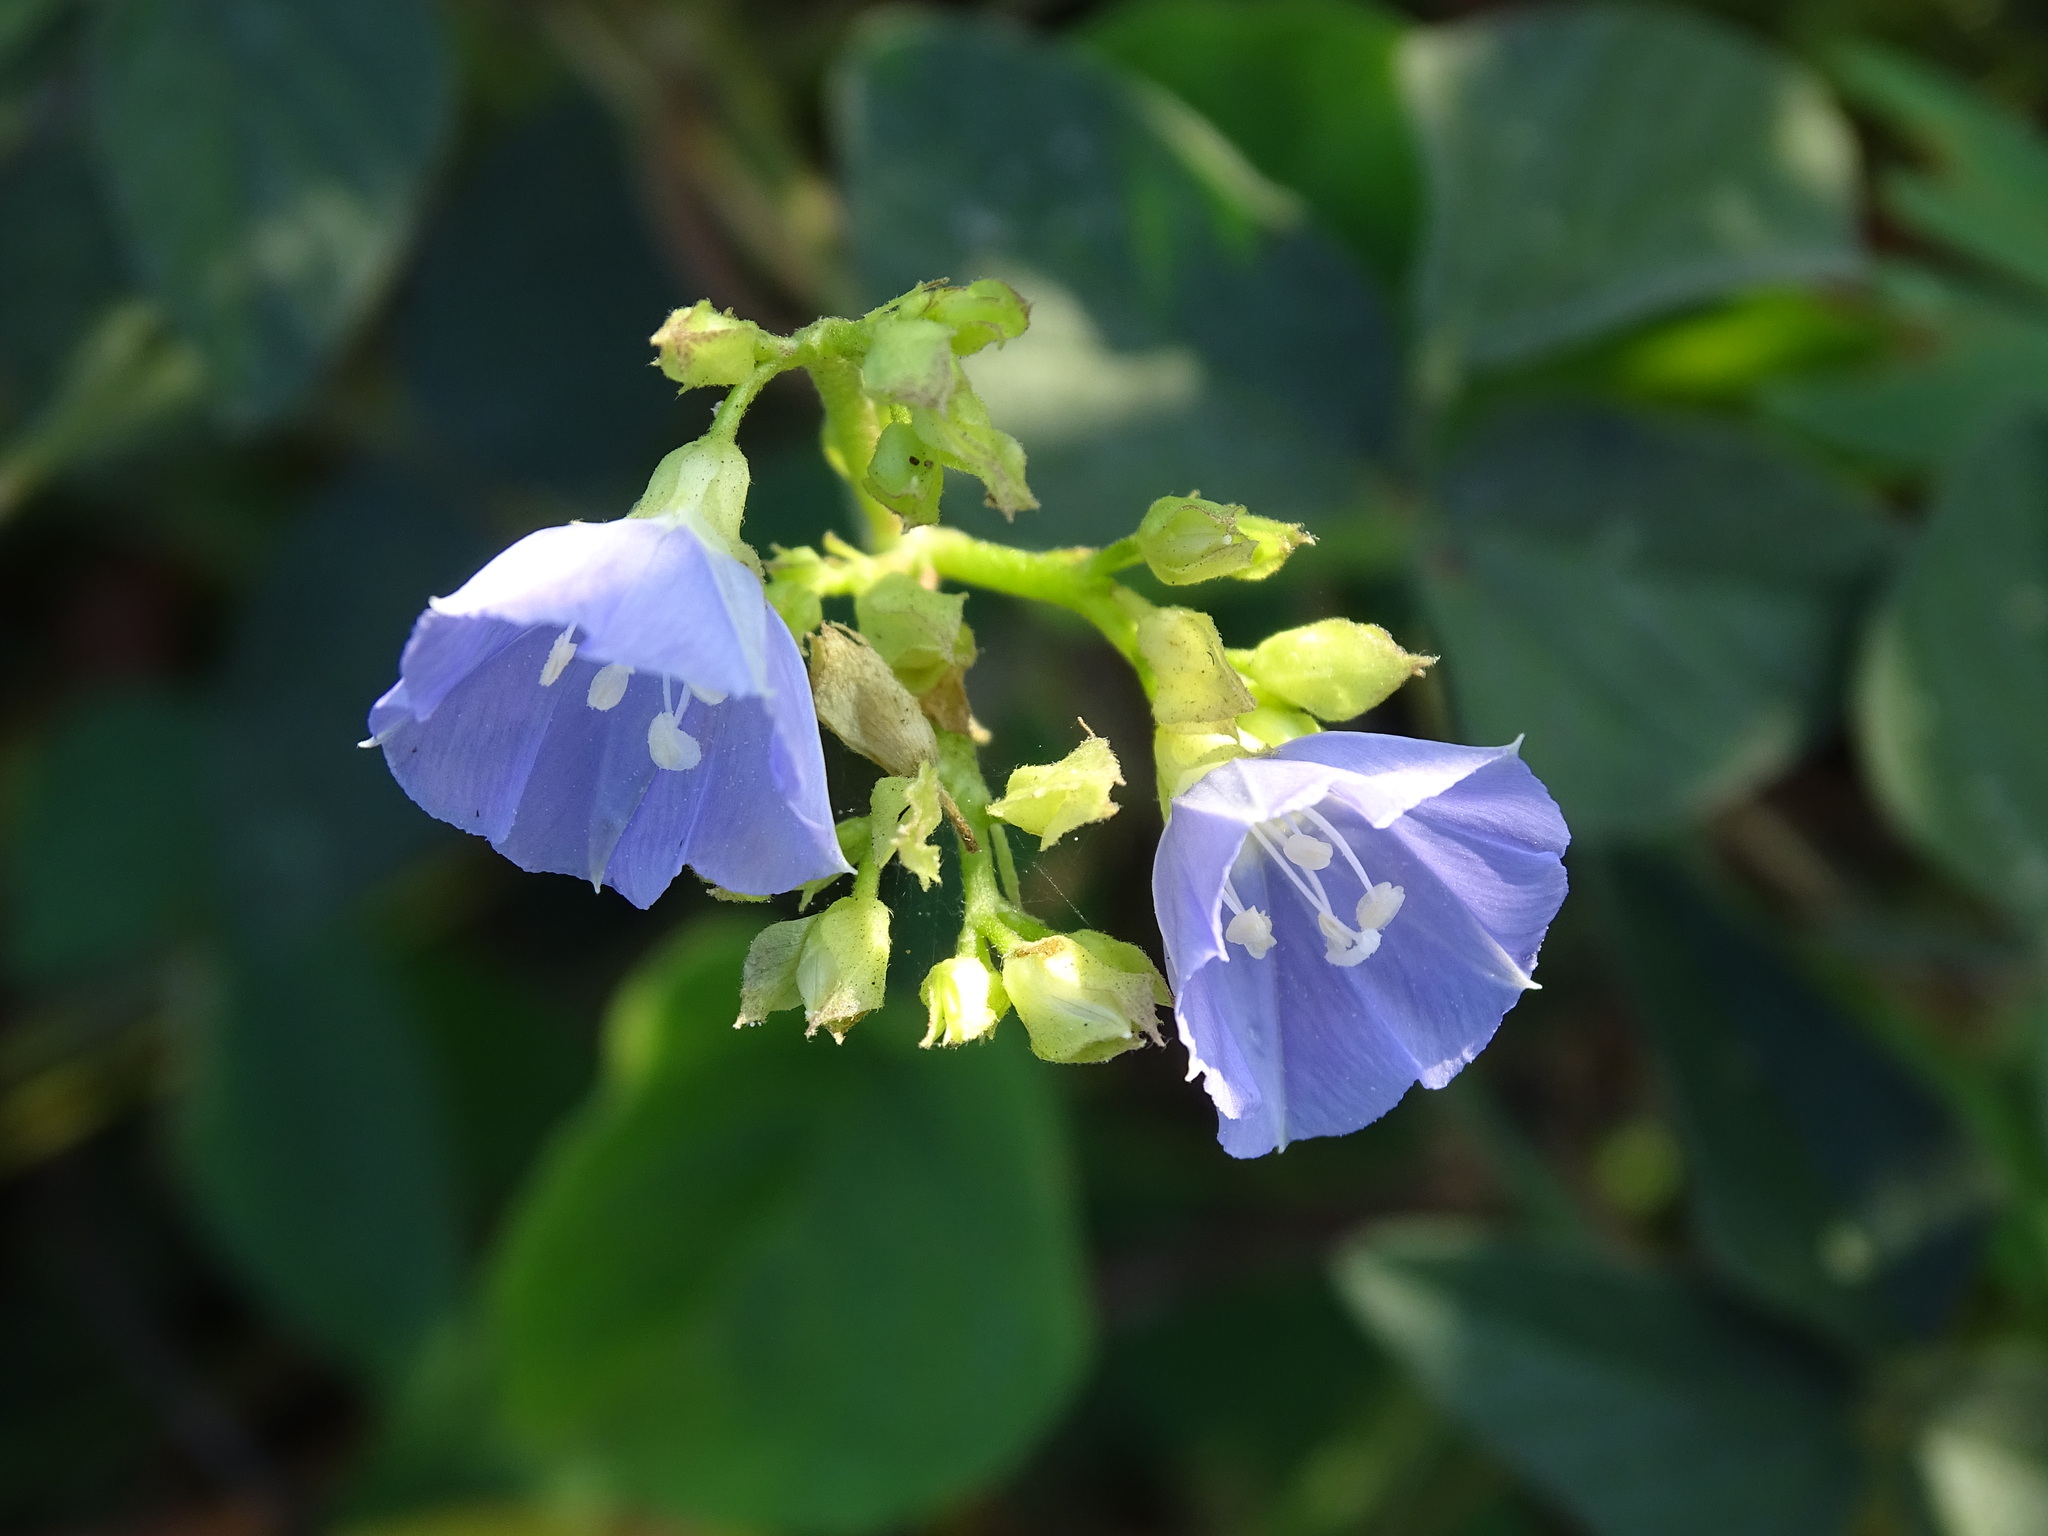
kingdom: Plantae
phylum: Tracheophyta
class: Magnoliopsida
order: Solanales
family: Convolvulaceae
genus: Jacquemontia
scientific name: Jacquemontia oaxacana
